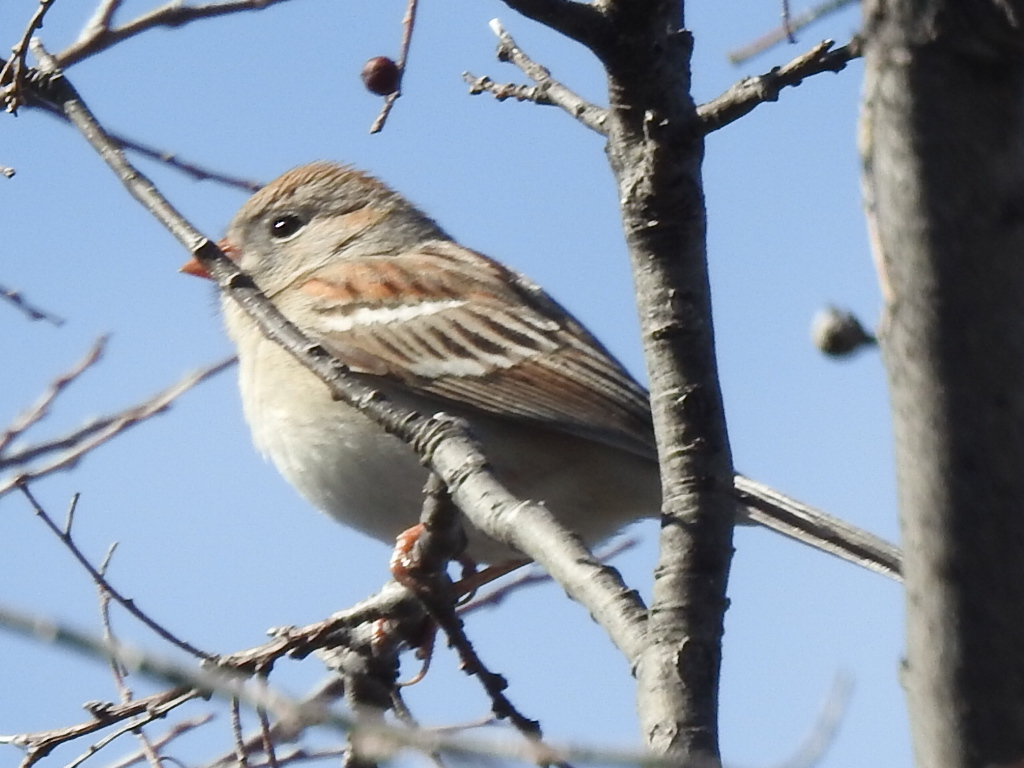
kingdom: Animalia
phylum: Chordata
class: Aves
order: Passeriformes
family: Passerellidae
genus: Spizella
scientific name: Spizella pusilla
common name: Field sparrow
